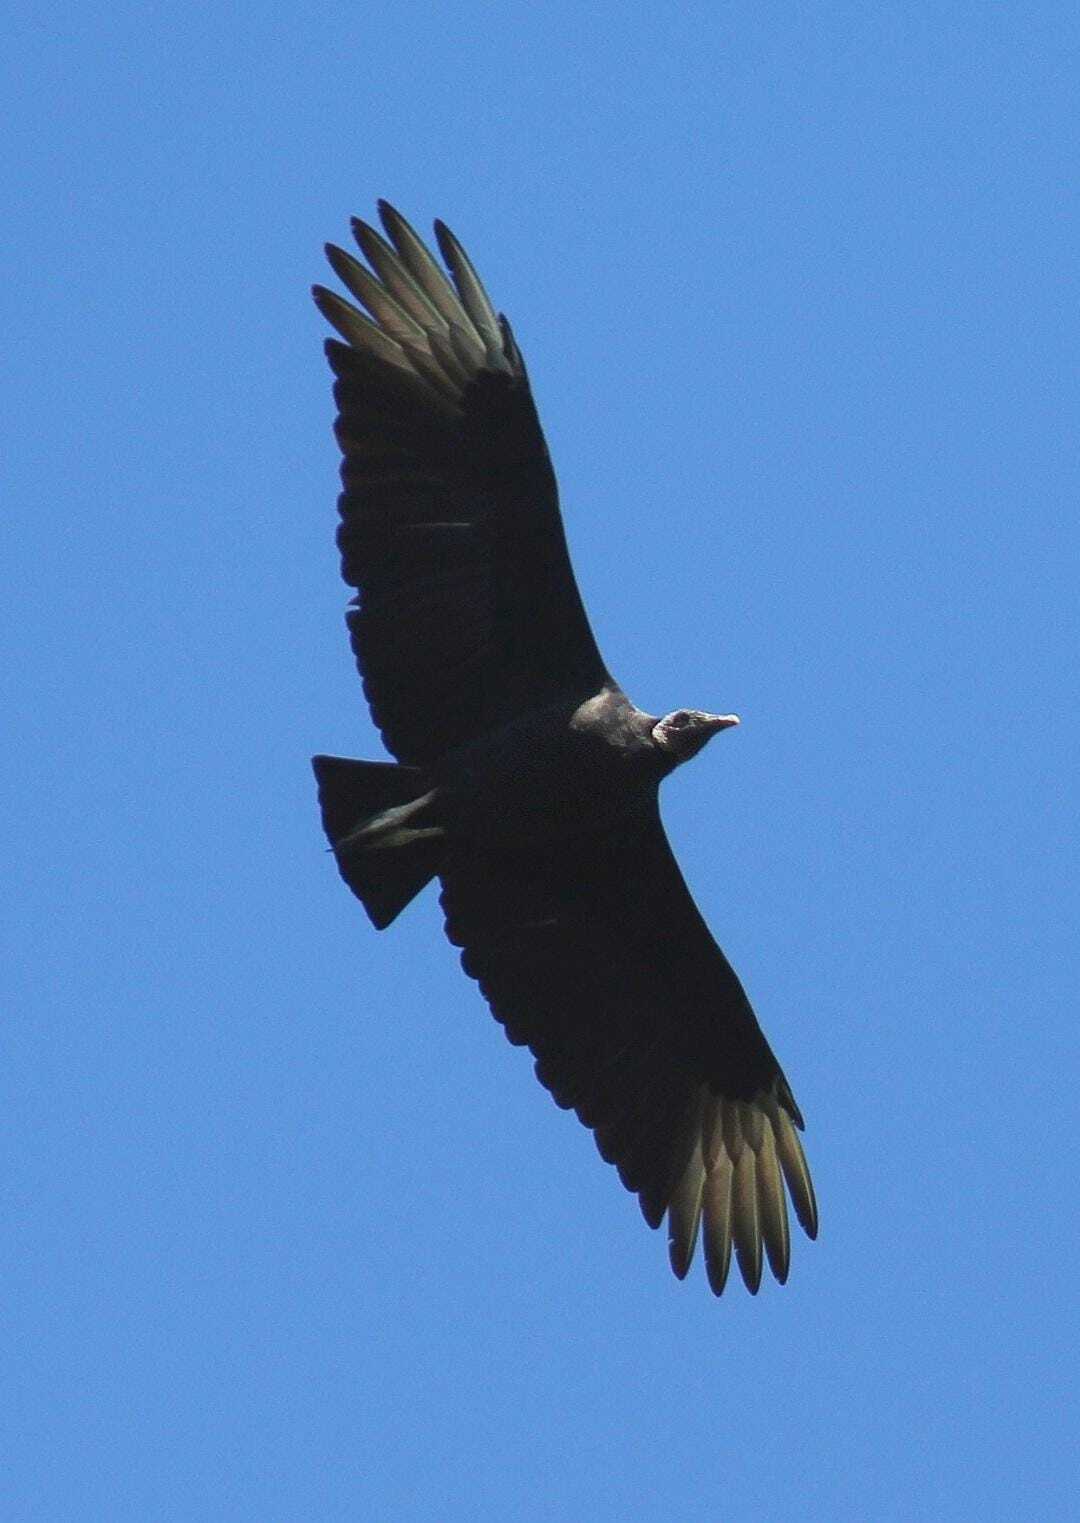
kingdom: Animalia
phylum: Chordata
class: Aves
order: Accipitriformes
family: Cathartidae
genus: Coragyps
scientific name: Coragyps atratus
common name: Black vulture
